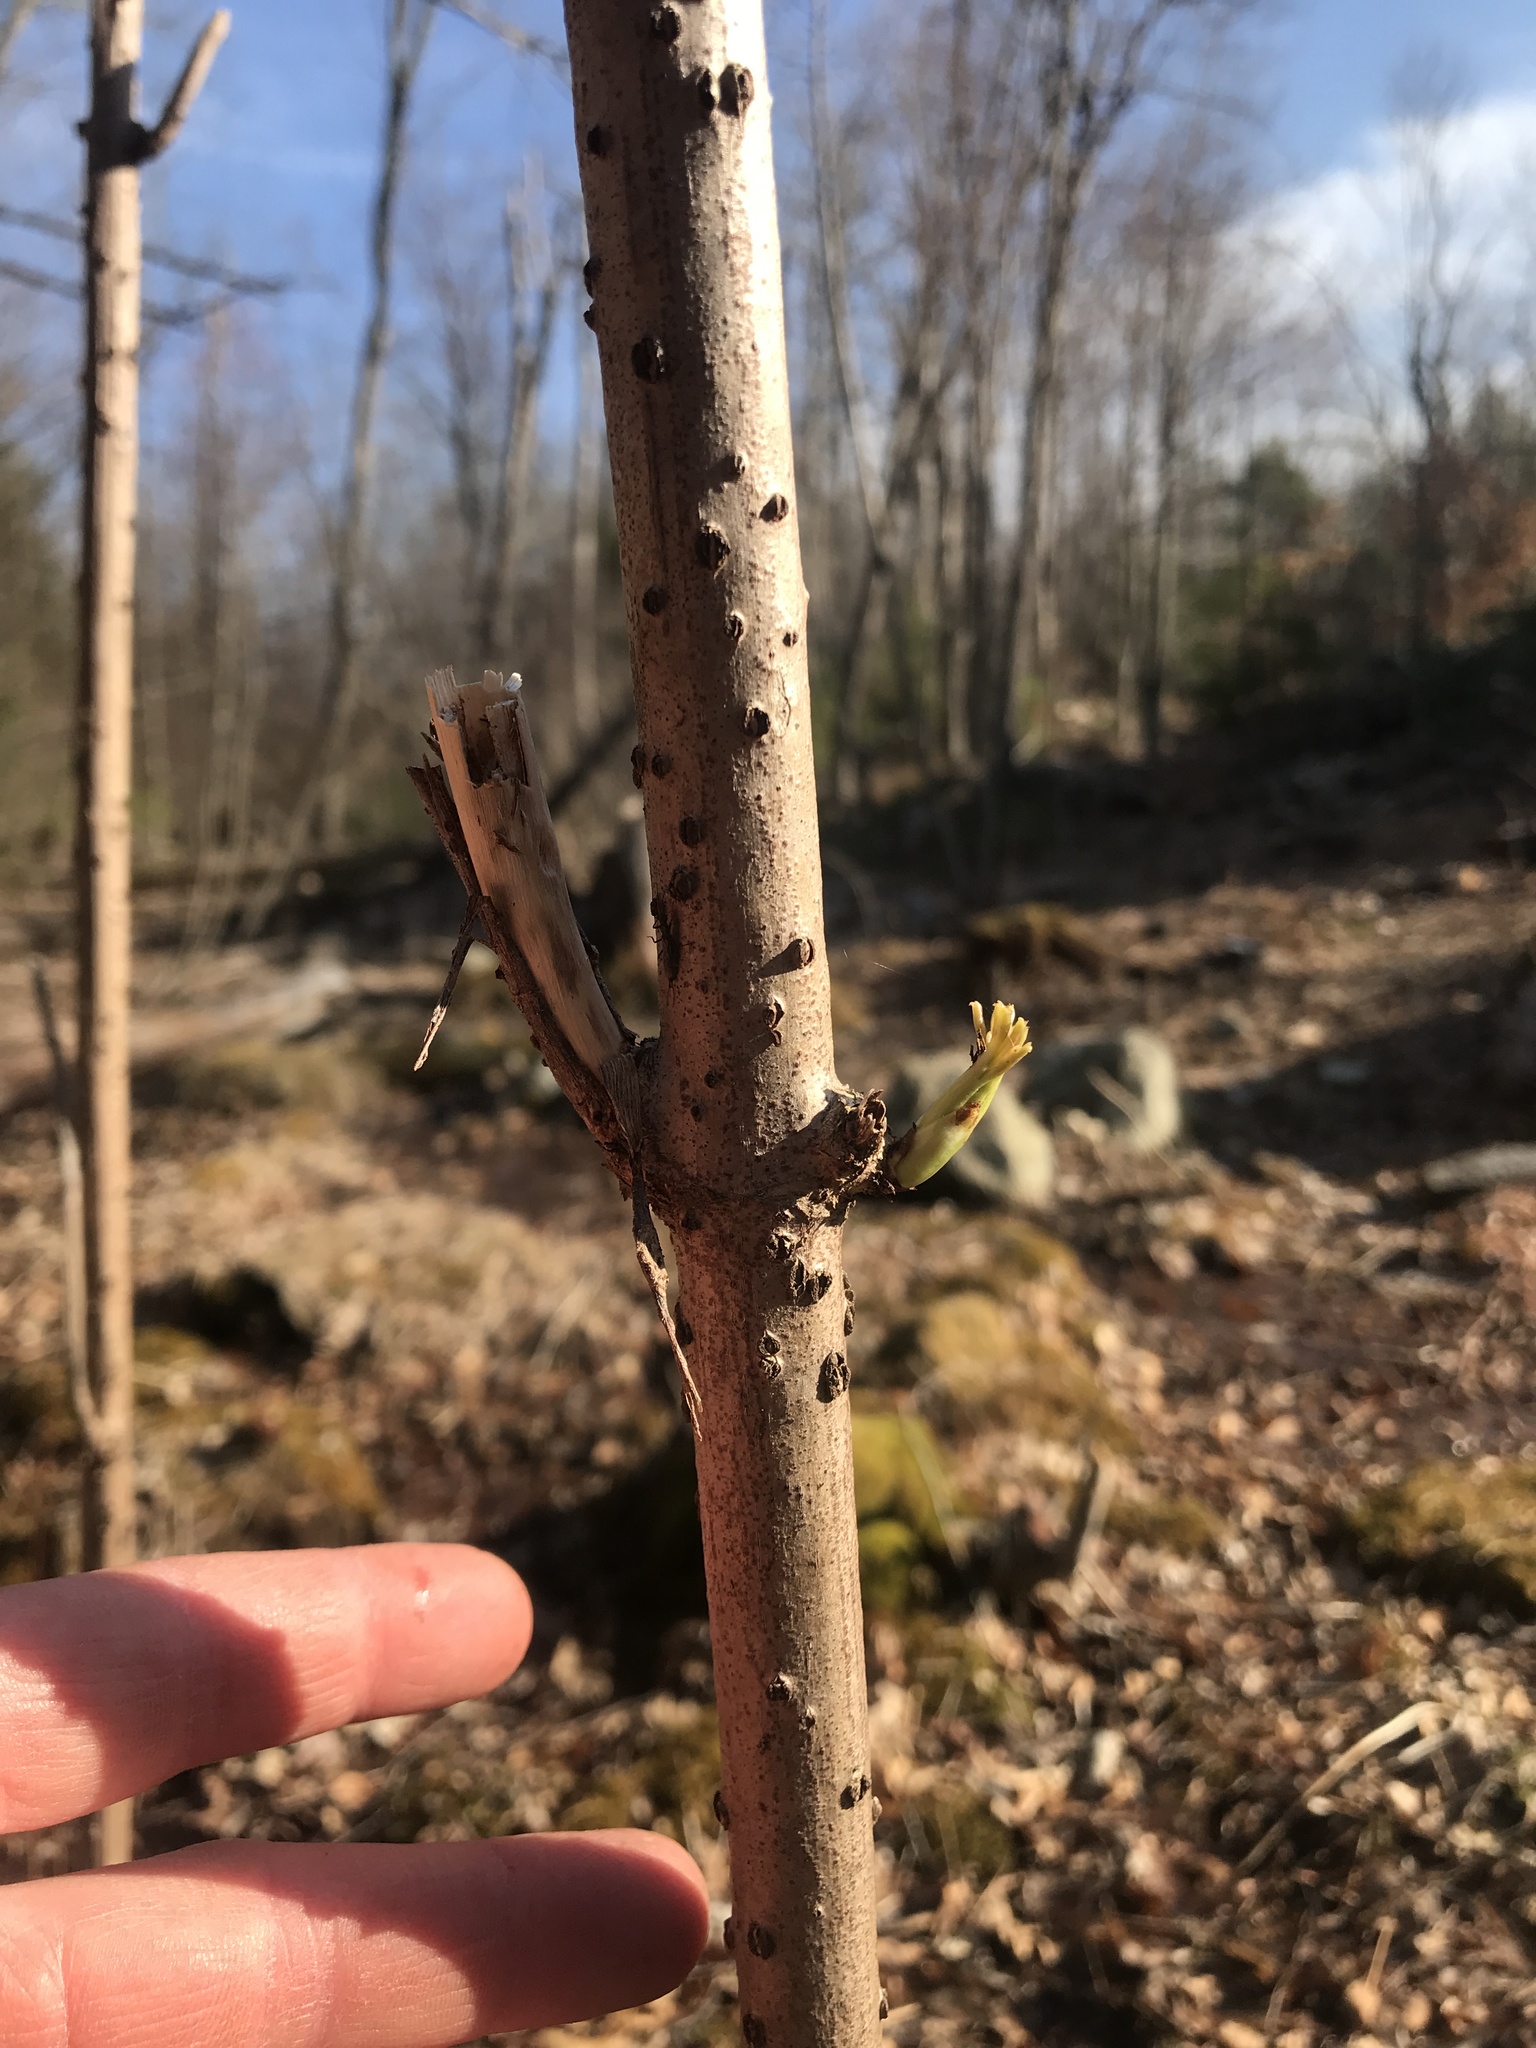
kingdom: Plantae
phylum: Tracheophyta
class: Magnoliopsida
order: Dipsacales
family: Viburnaceae
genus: Sambucus
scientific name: Sambucus canadensis
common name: American elder
